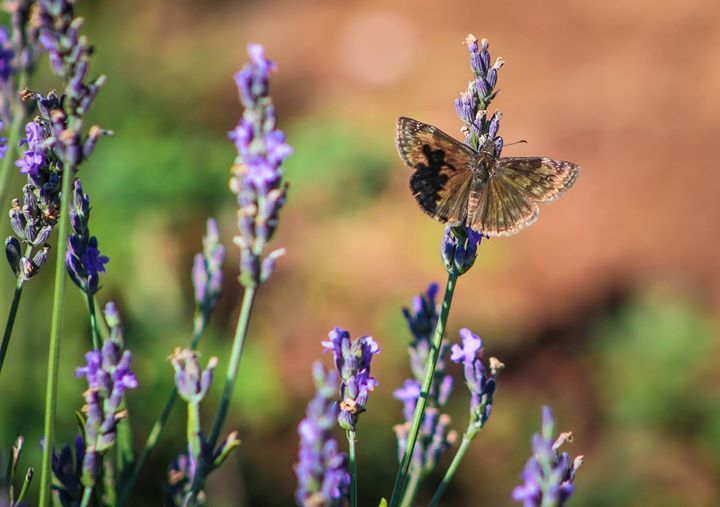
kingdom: Animalia
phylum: Arthropoda
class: Insecta
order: Lepidoptera
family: Hesperiidae
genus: Erynnis
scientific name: Erynnis baptisiae
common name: Wild indigo duskywing
